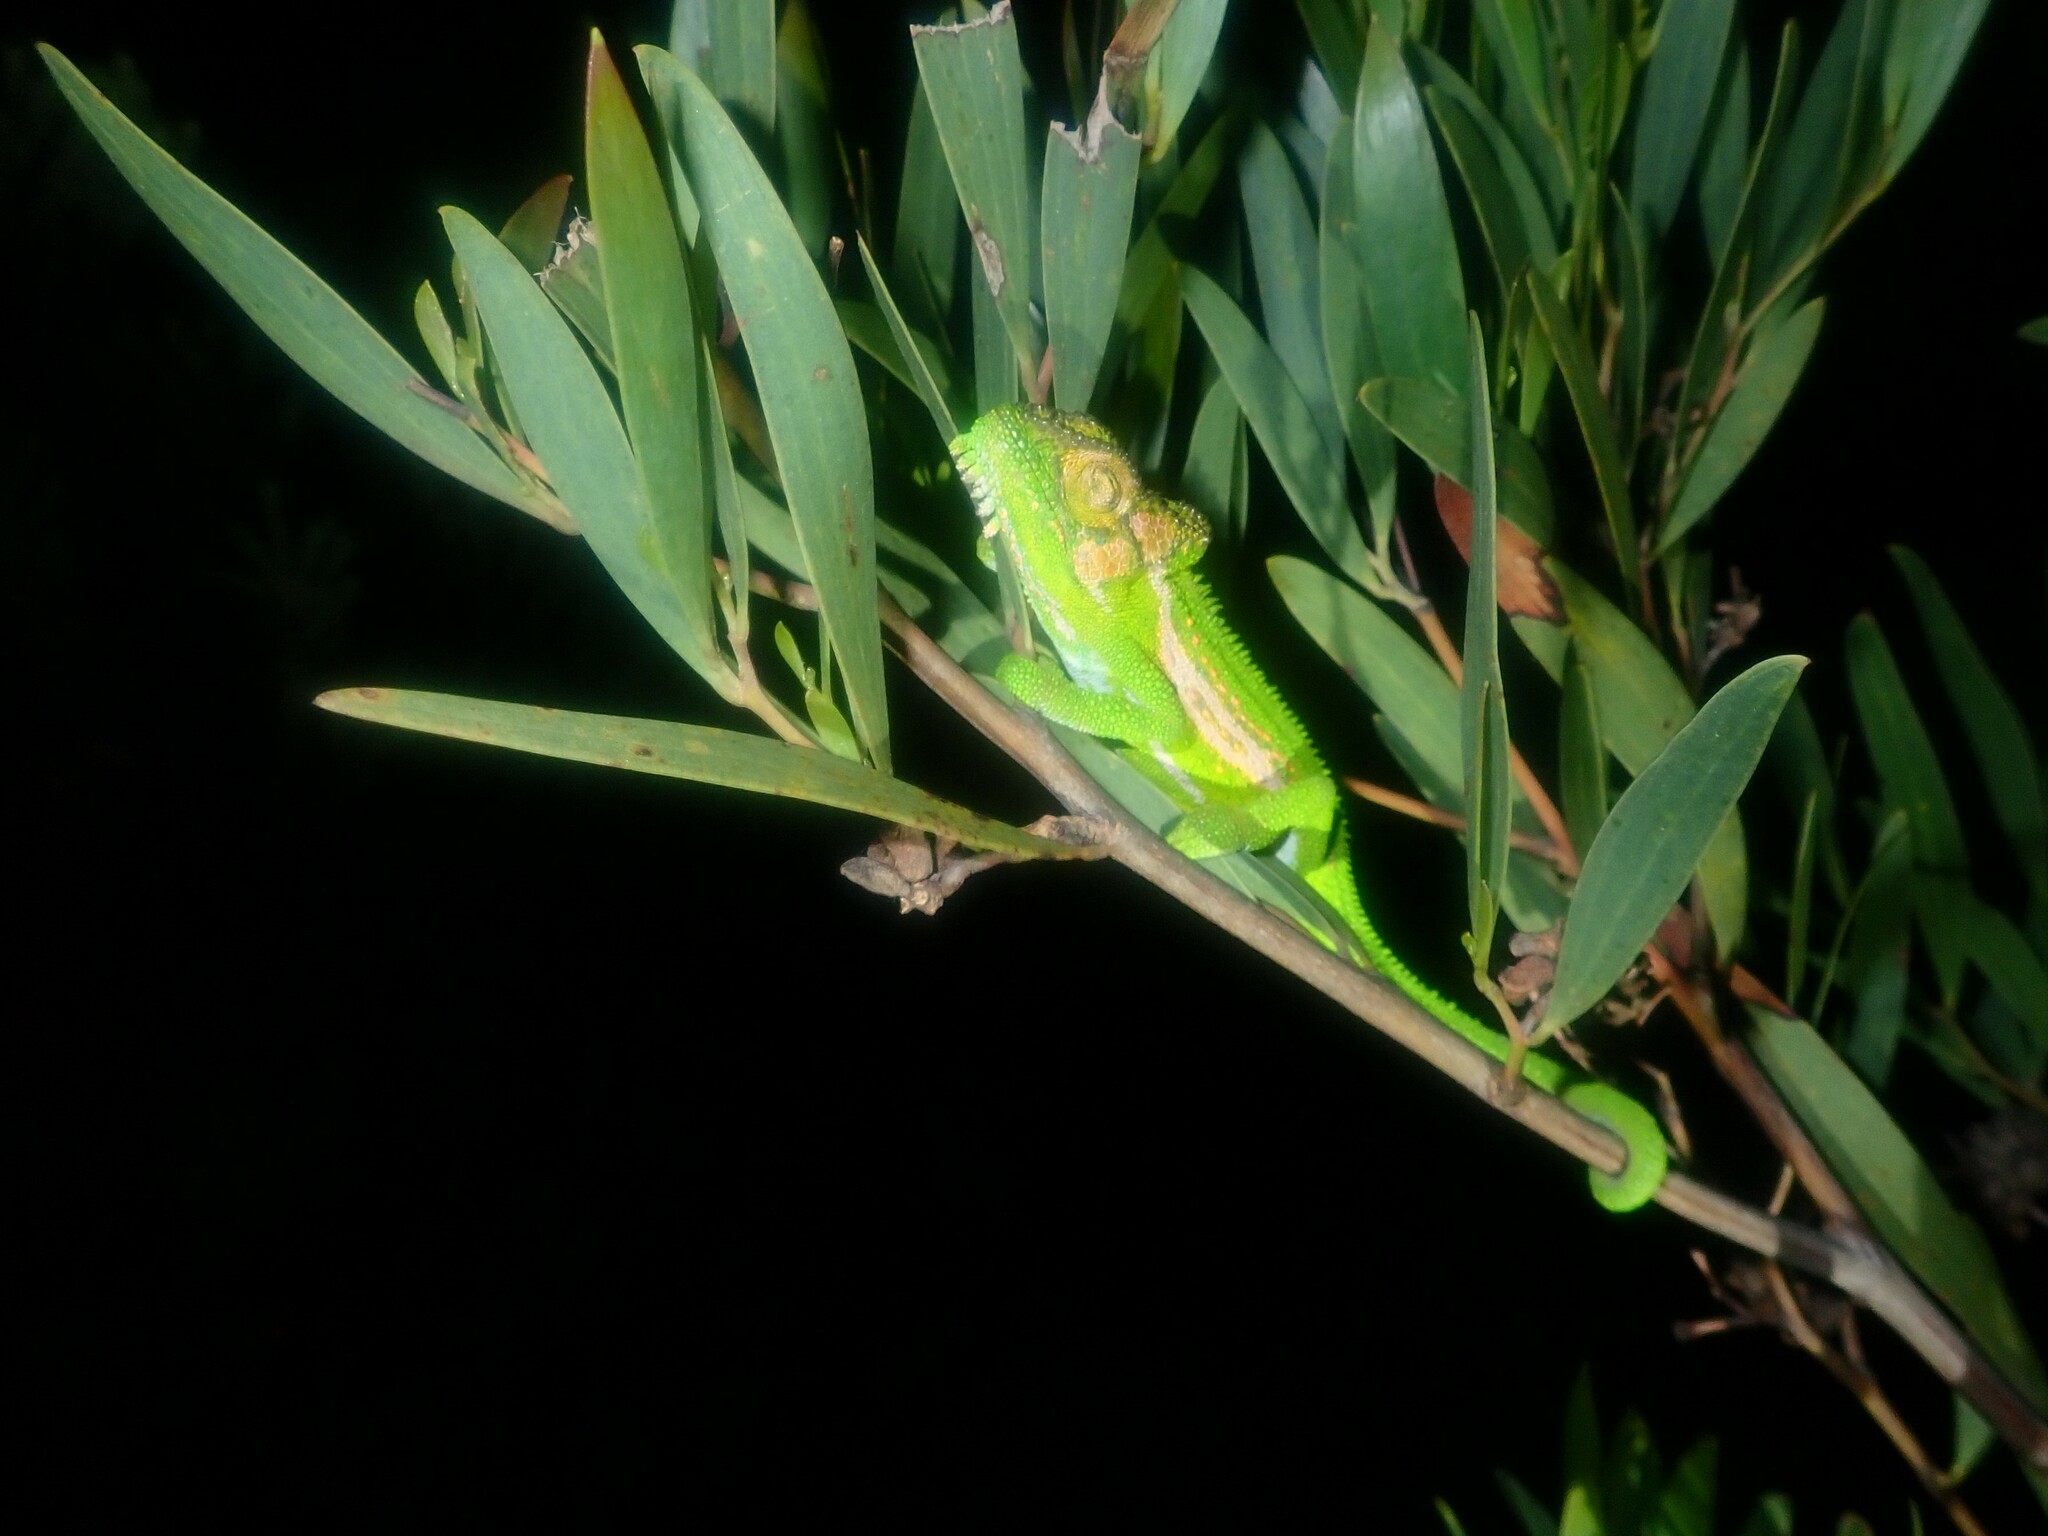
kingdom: Animalia
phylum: Chordata
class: Squamata
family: Chamaeleonidae
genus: Bradypodion
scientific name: Bradypodion pumilum
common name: Cape dwarf chameleon
